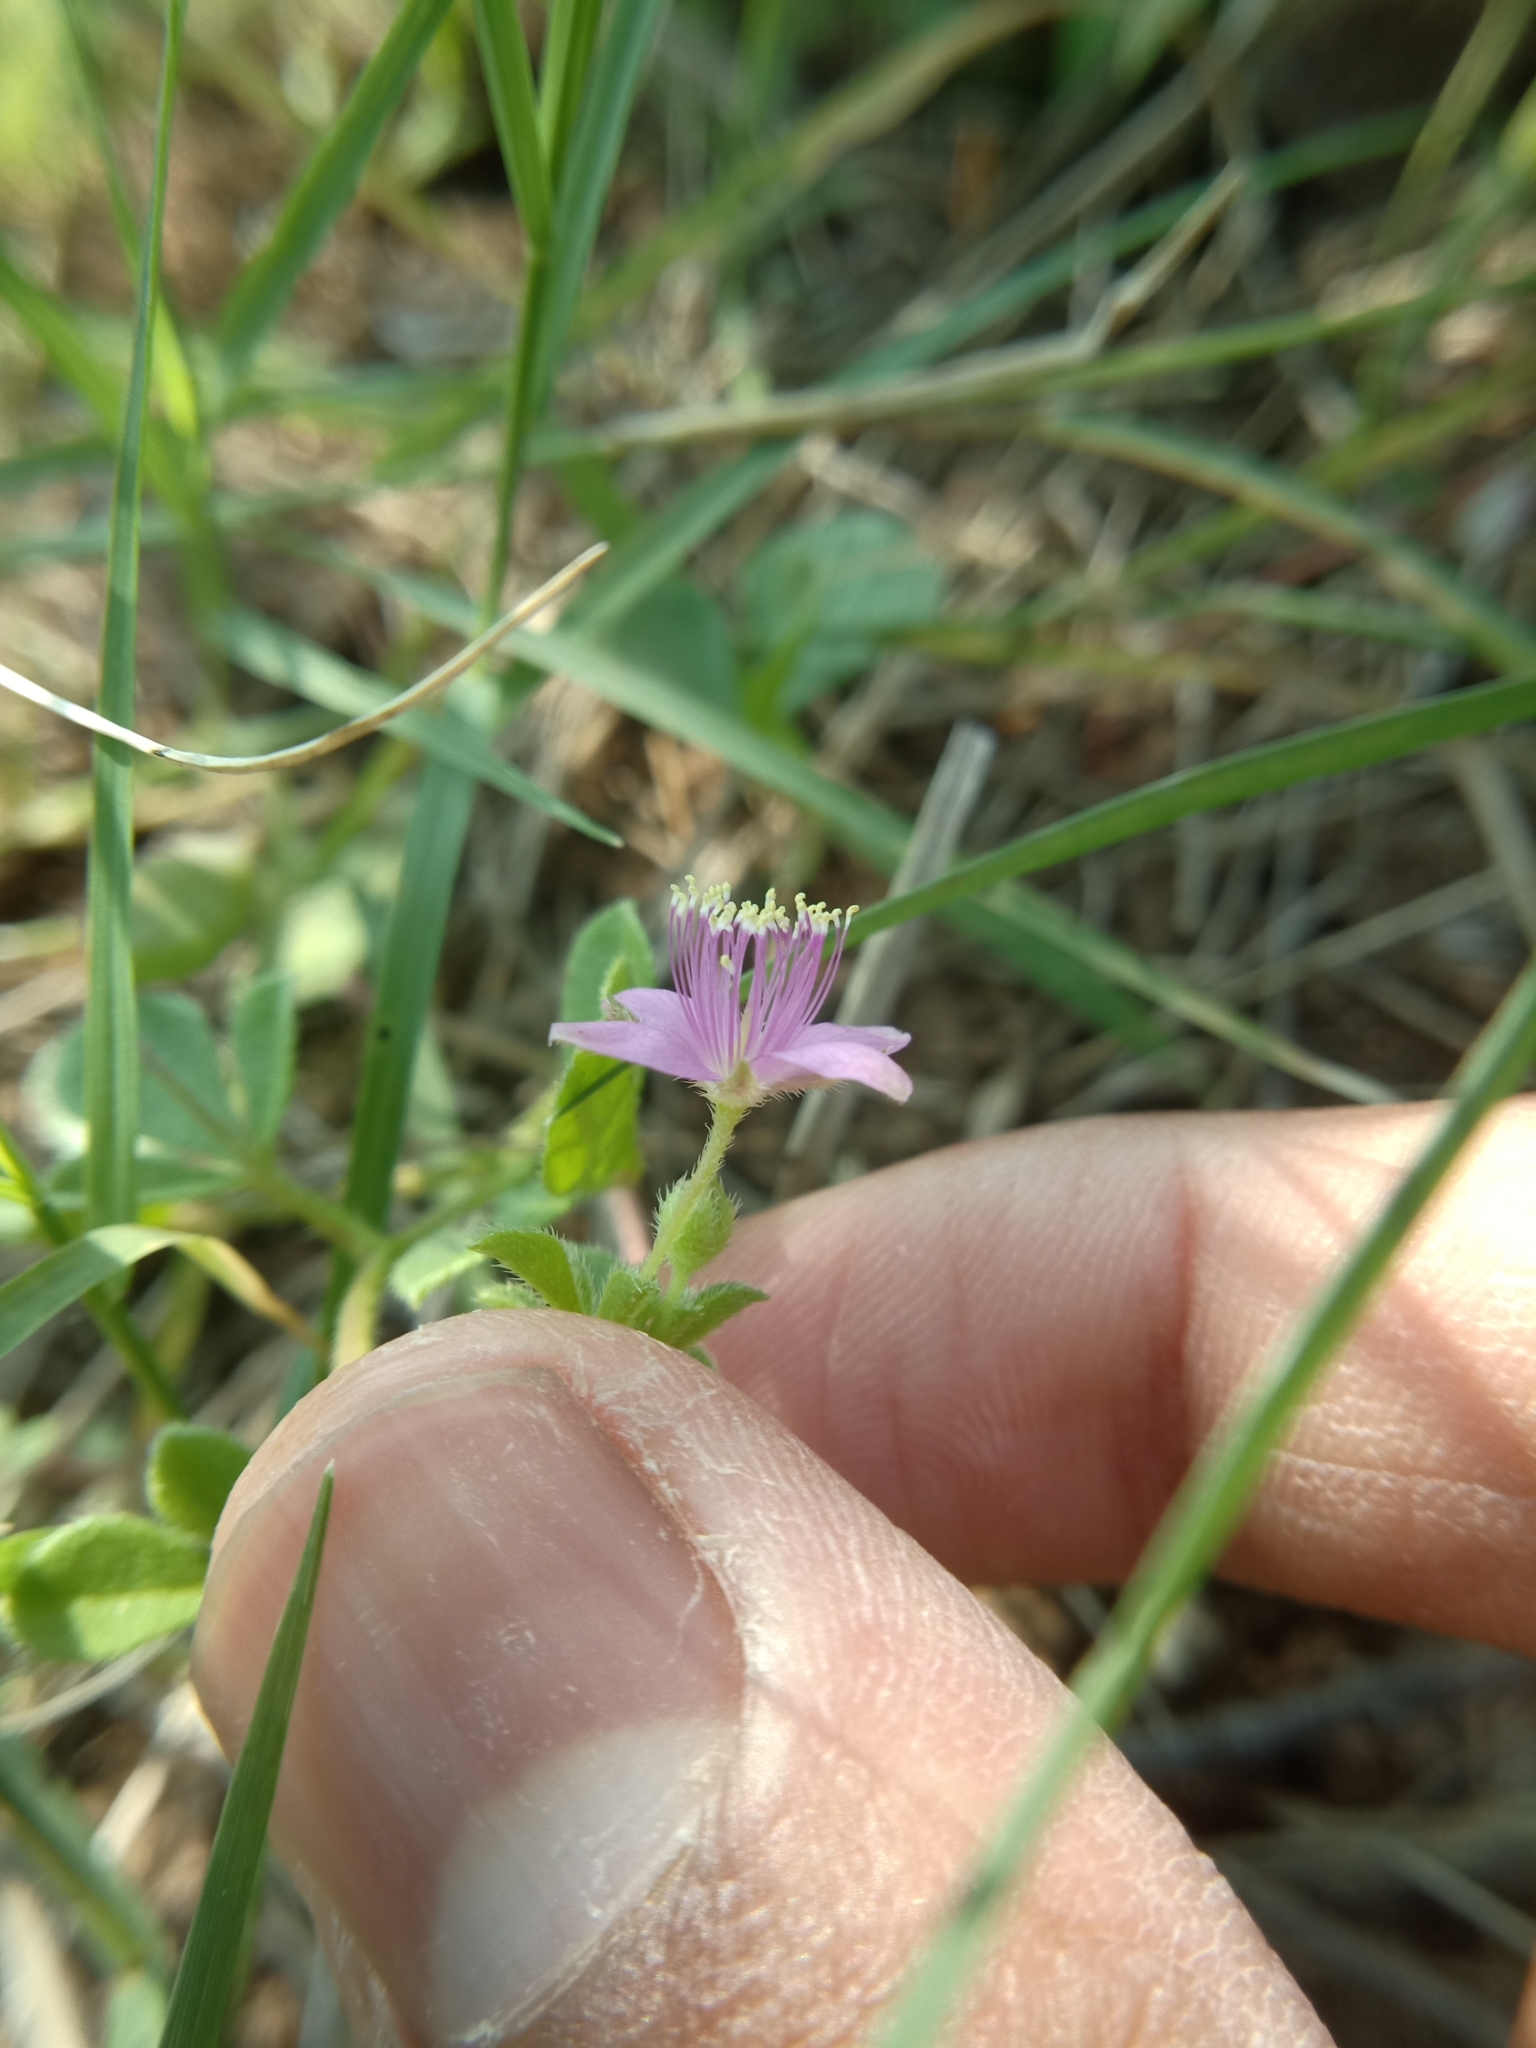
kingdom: Plantae
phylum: Tracheophyta
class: Magnoliopsida
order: Brassicales
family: Cleomaceae
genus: Corynandra
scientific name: Corynandra felina
